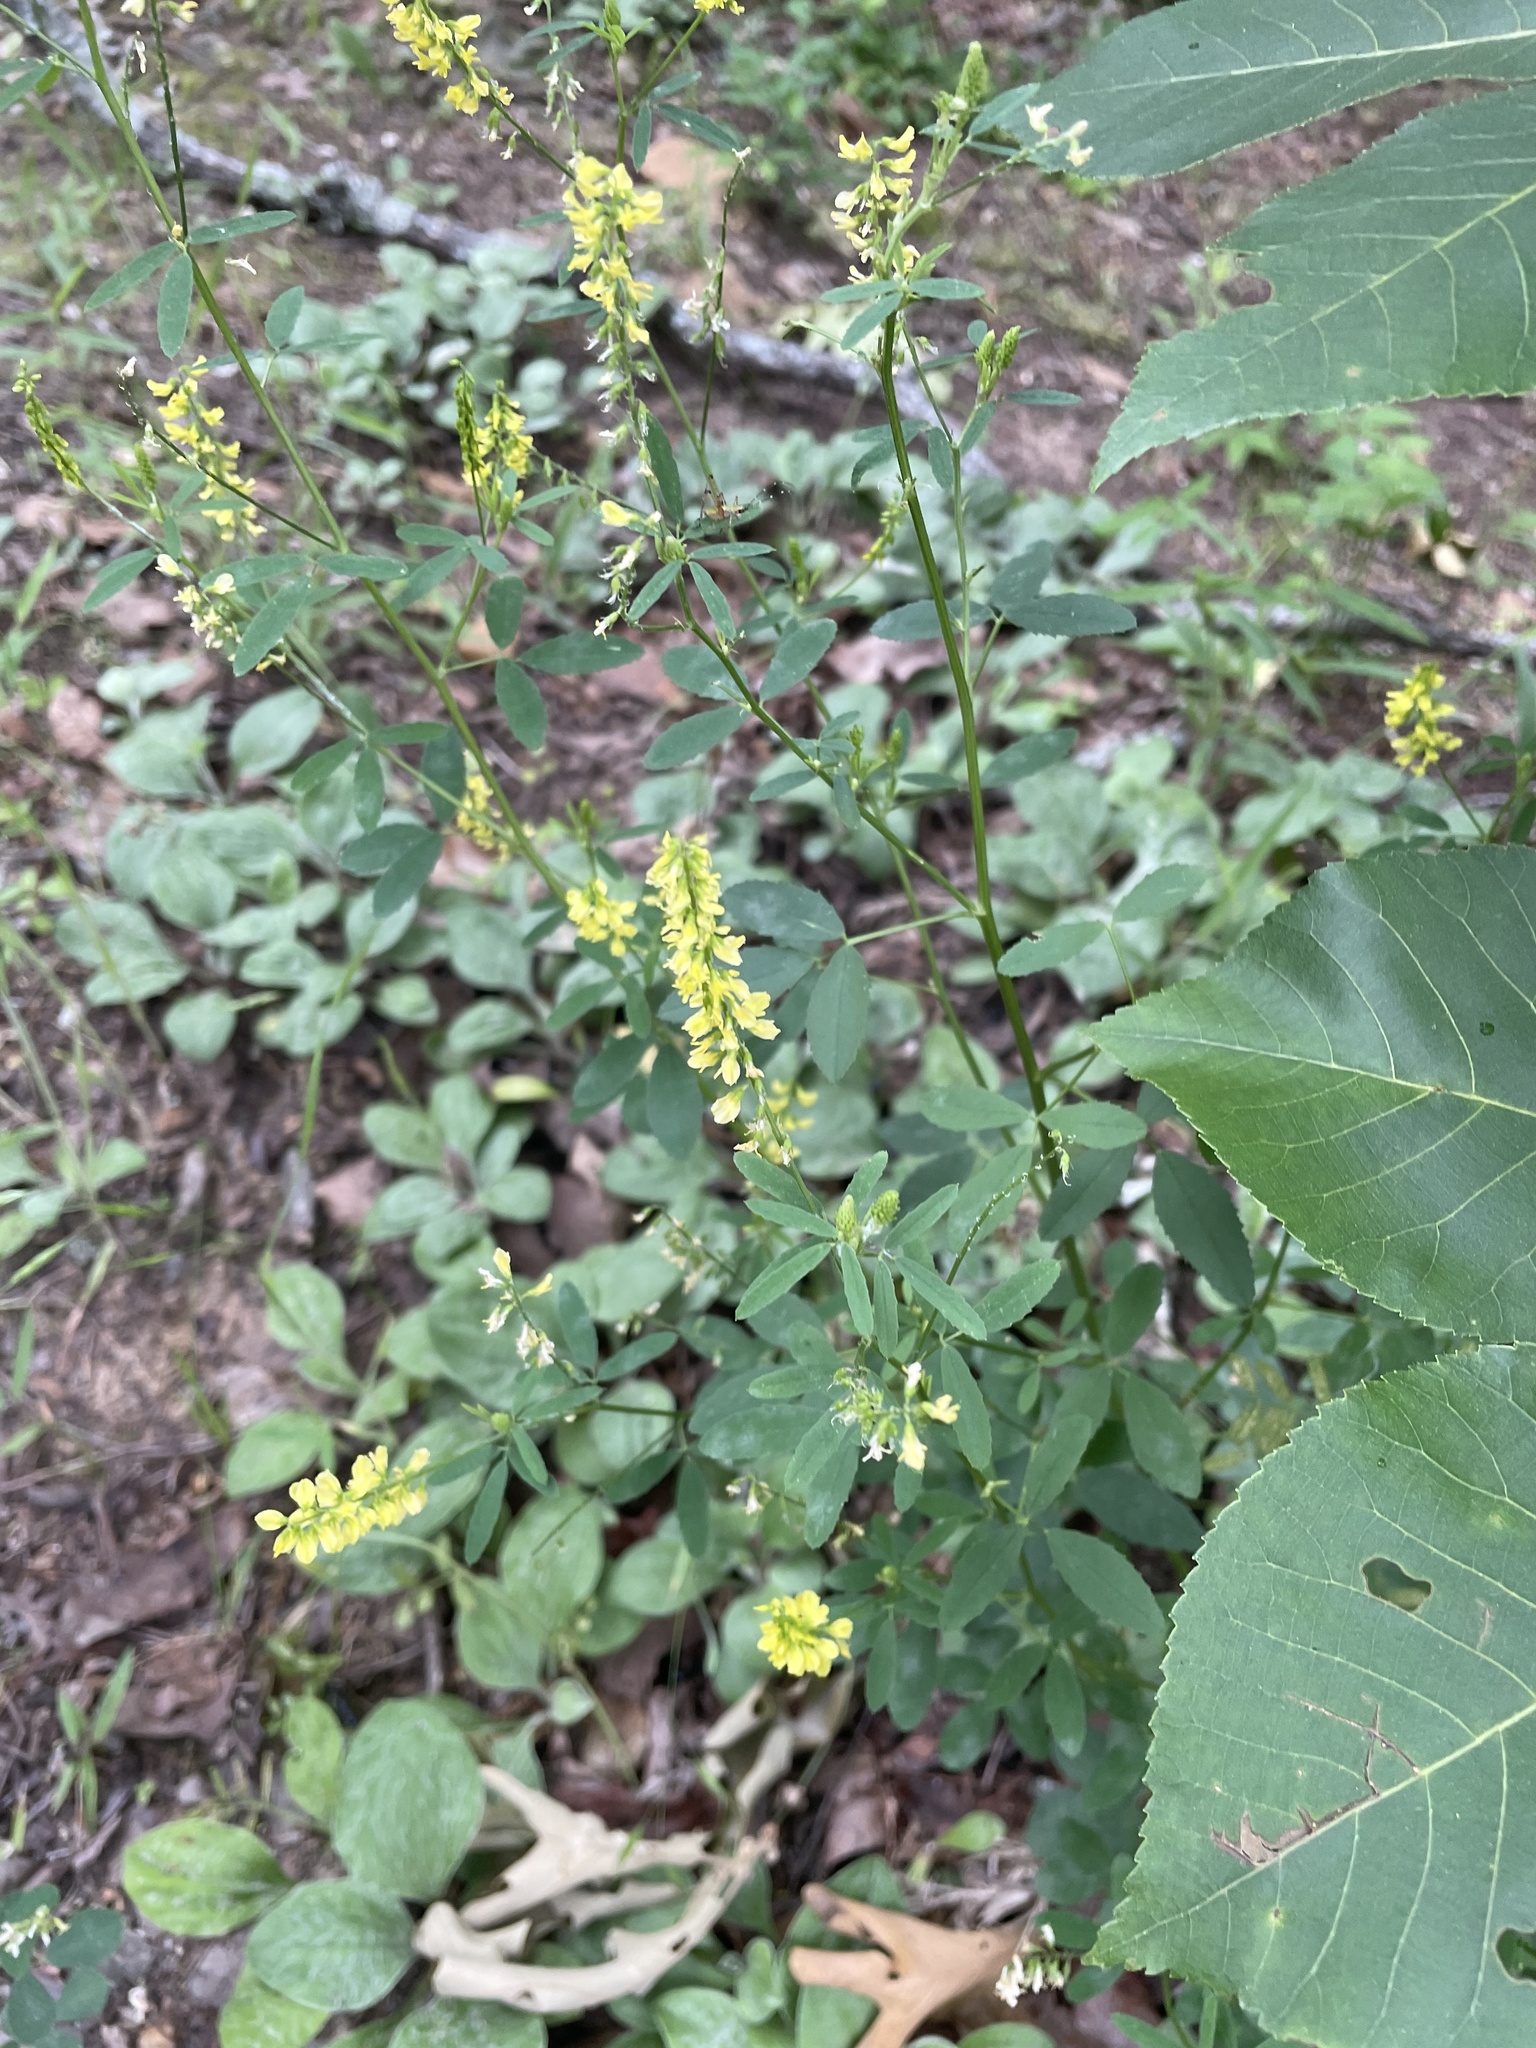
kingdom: Plantae
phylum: Tracheophyta
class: Magnoliopsida
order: Fabales
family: Fabaceae
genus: Melilotus
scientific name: Melilotus officinalis
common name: Sweetclover
